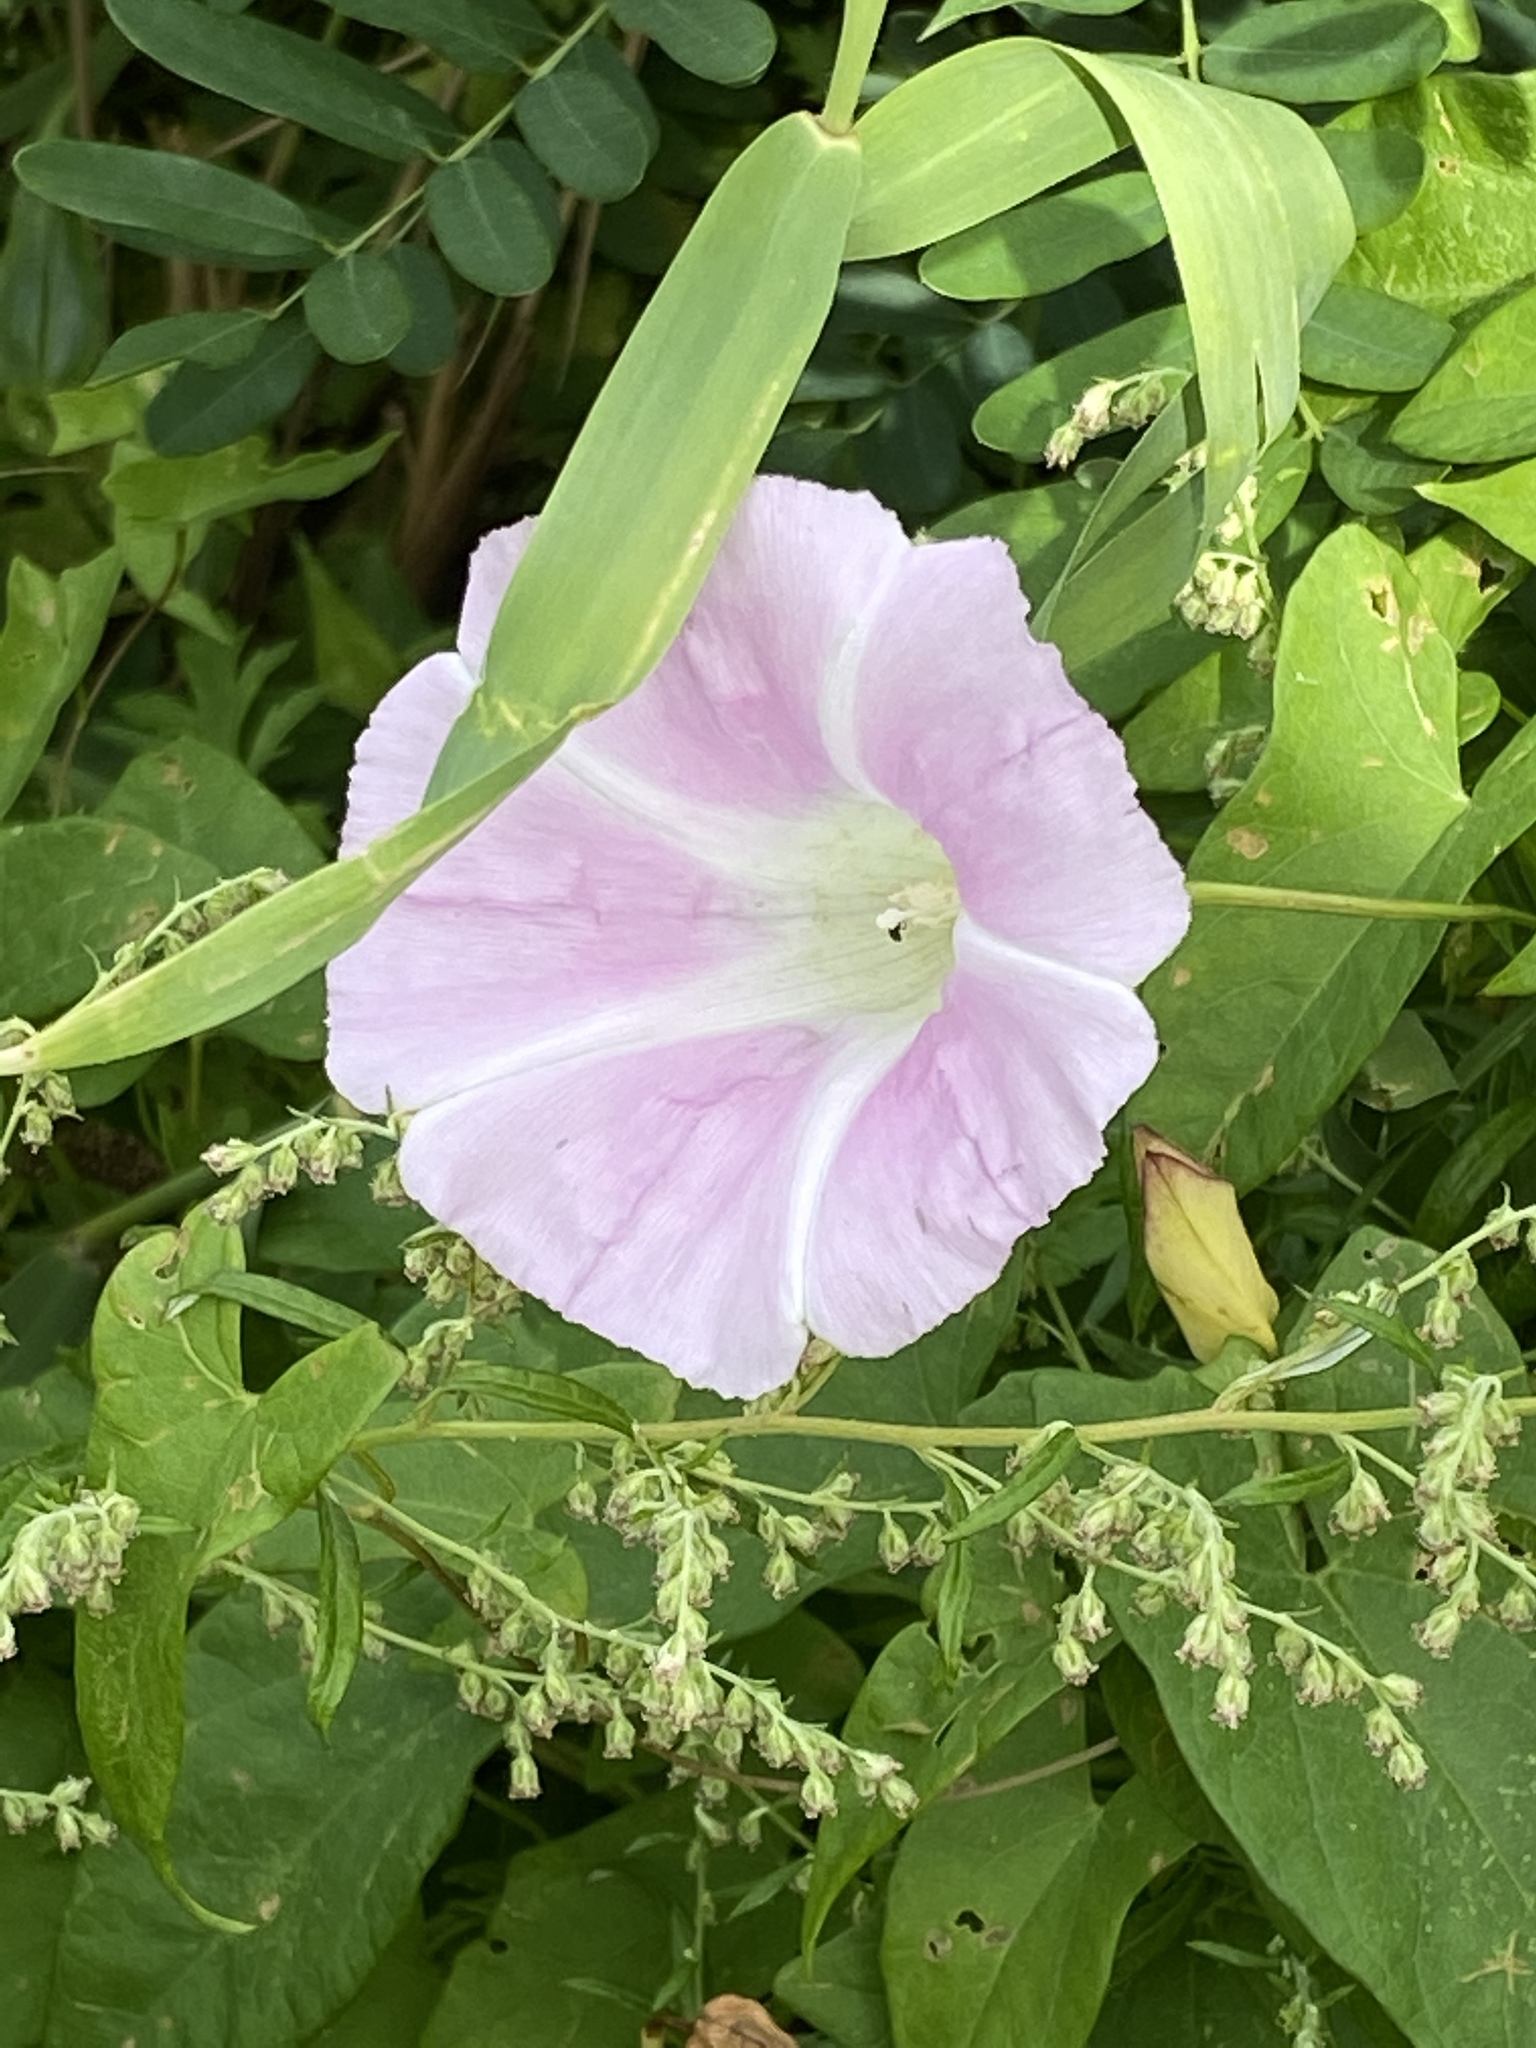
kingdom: Plantae
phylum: Tracheophyta
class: Magnoliopsida
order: Solanales
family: Convolvulaceae
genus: Calystegia
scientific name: Calystegia sepium
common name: Hedge bindweed
